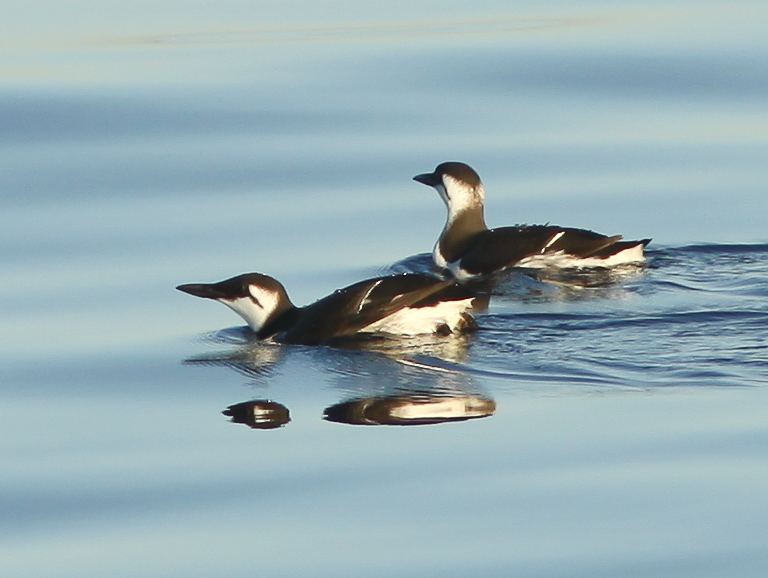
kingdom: Animalia
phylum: Chordata
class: Aves
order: Charadriiformes
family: Alcidae
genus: Uria
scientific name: Uria aalge
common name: Common murre
